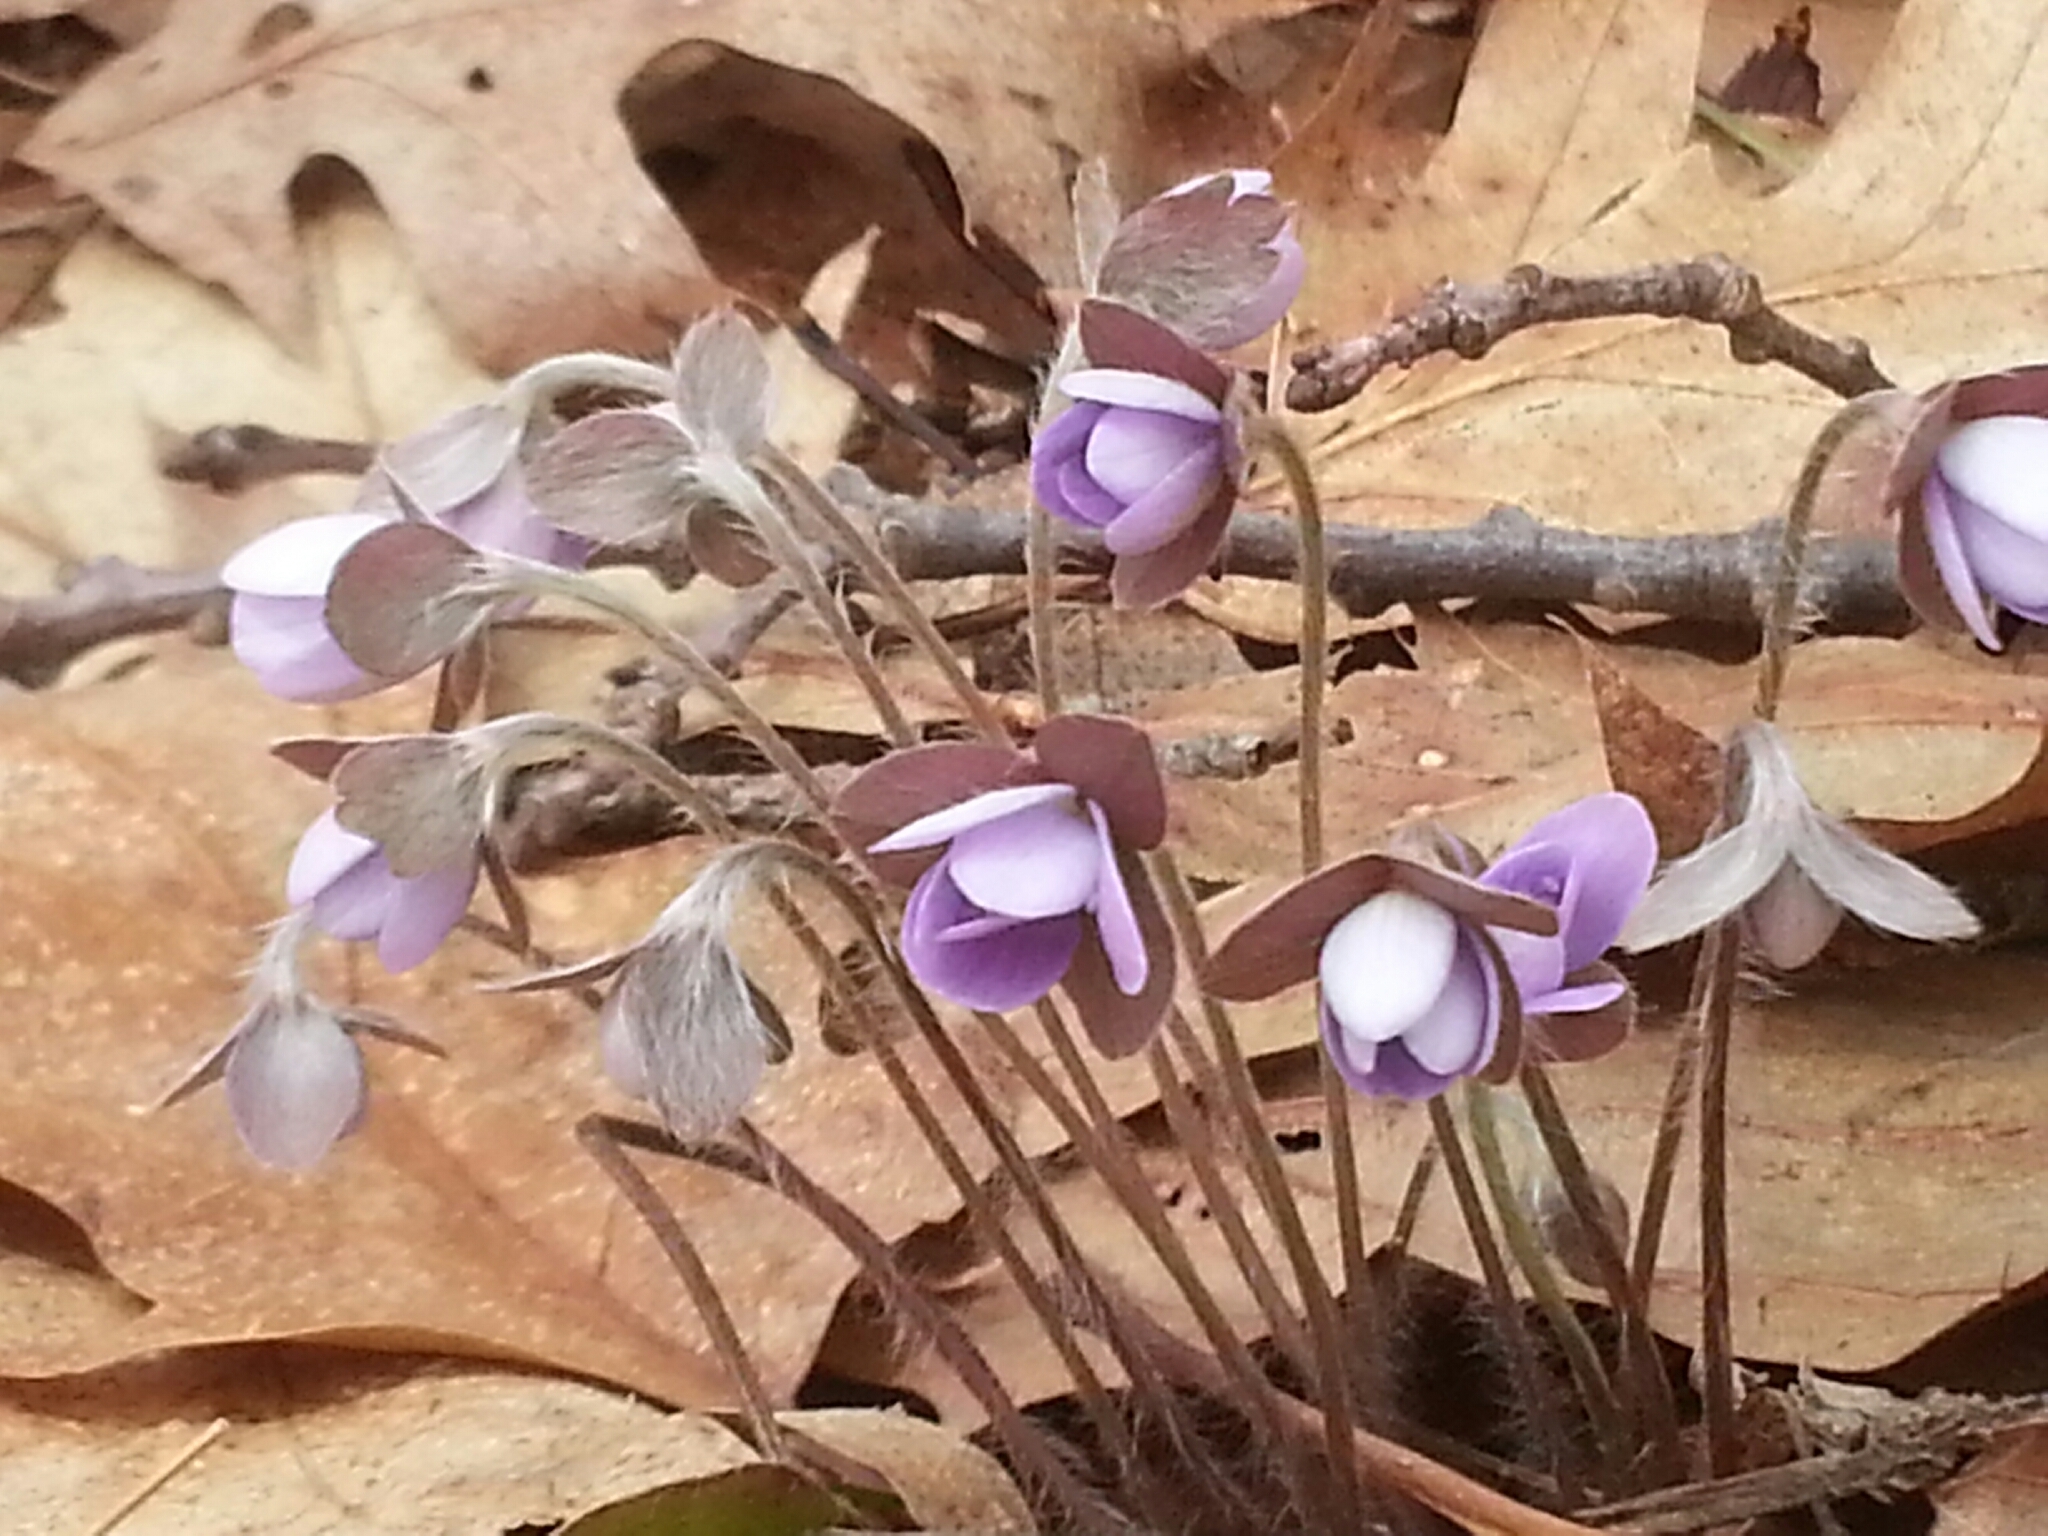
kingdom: Plantae
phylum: Tracheophyta
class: Magnoliopsida
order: Ranunculales
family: Ranunculaceae
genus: Hepatica
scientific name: Hepatica americana
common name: American hepatica
